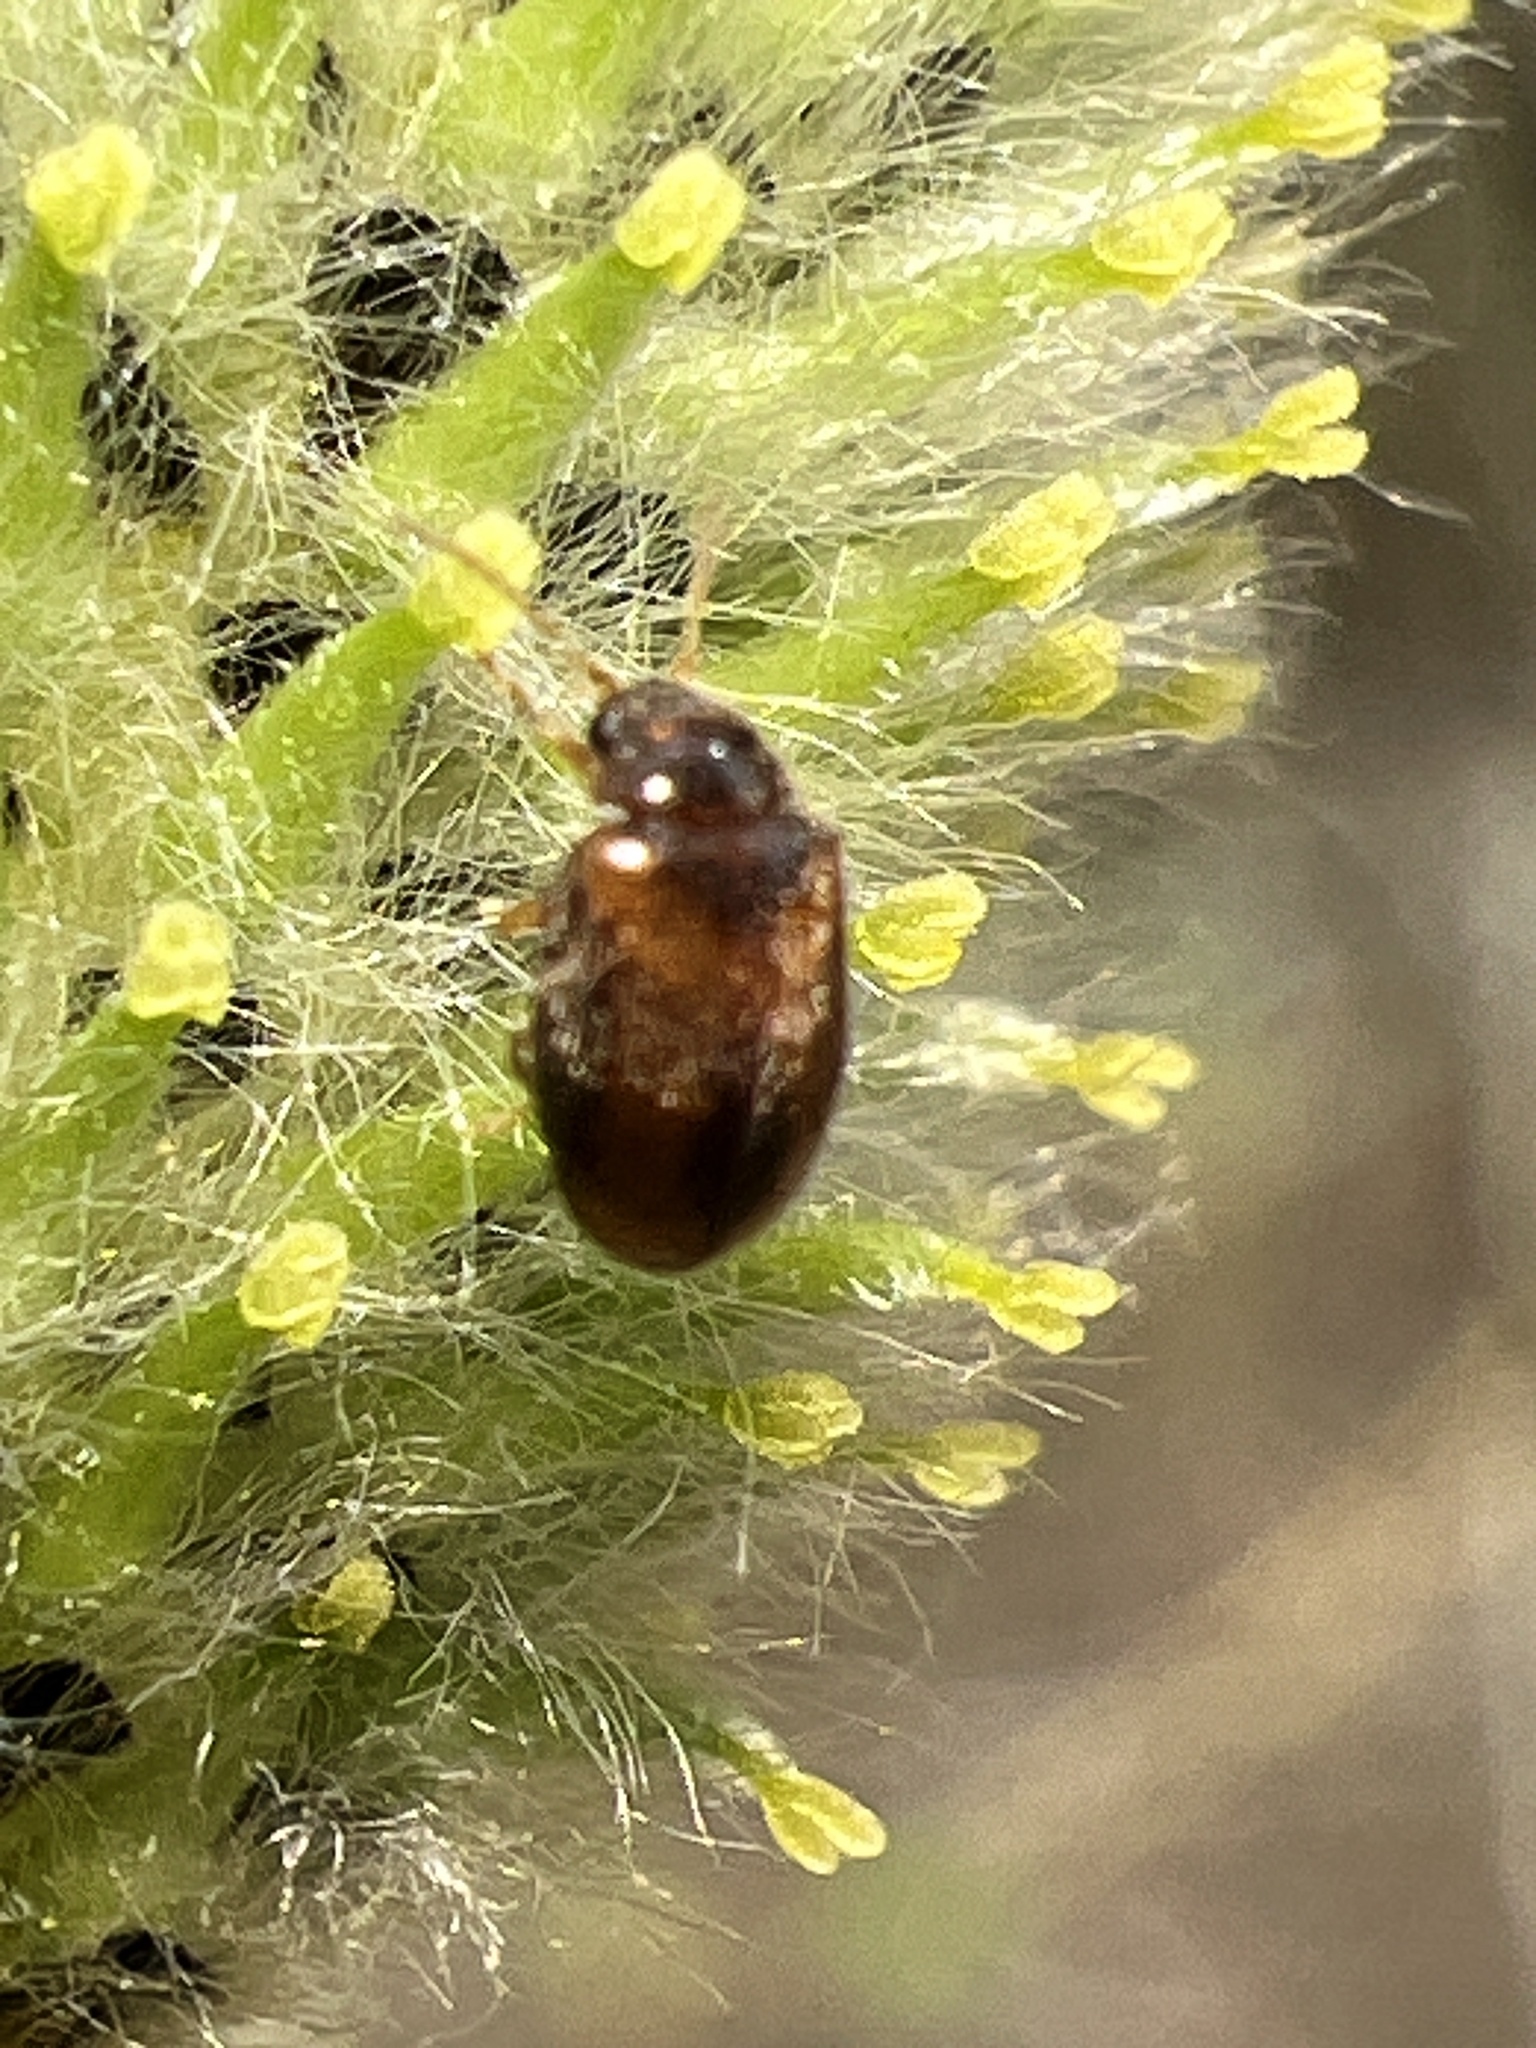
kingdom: Animalia
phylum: Arthropoda
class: Insecta
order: Coleoptera
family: Scirtidae
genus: Contacyphon
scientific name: Contacyphon
